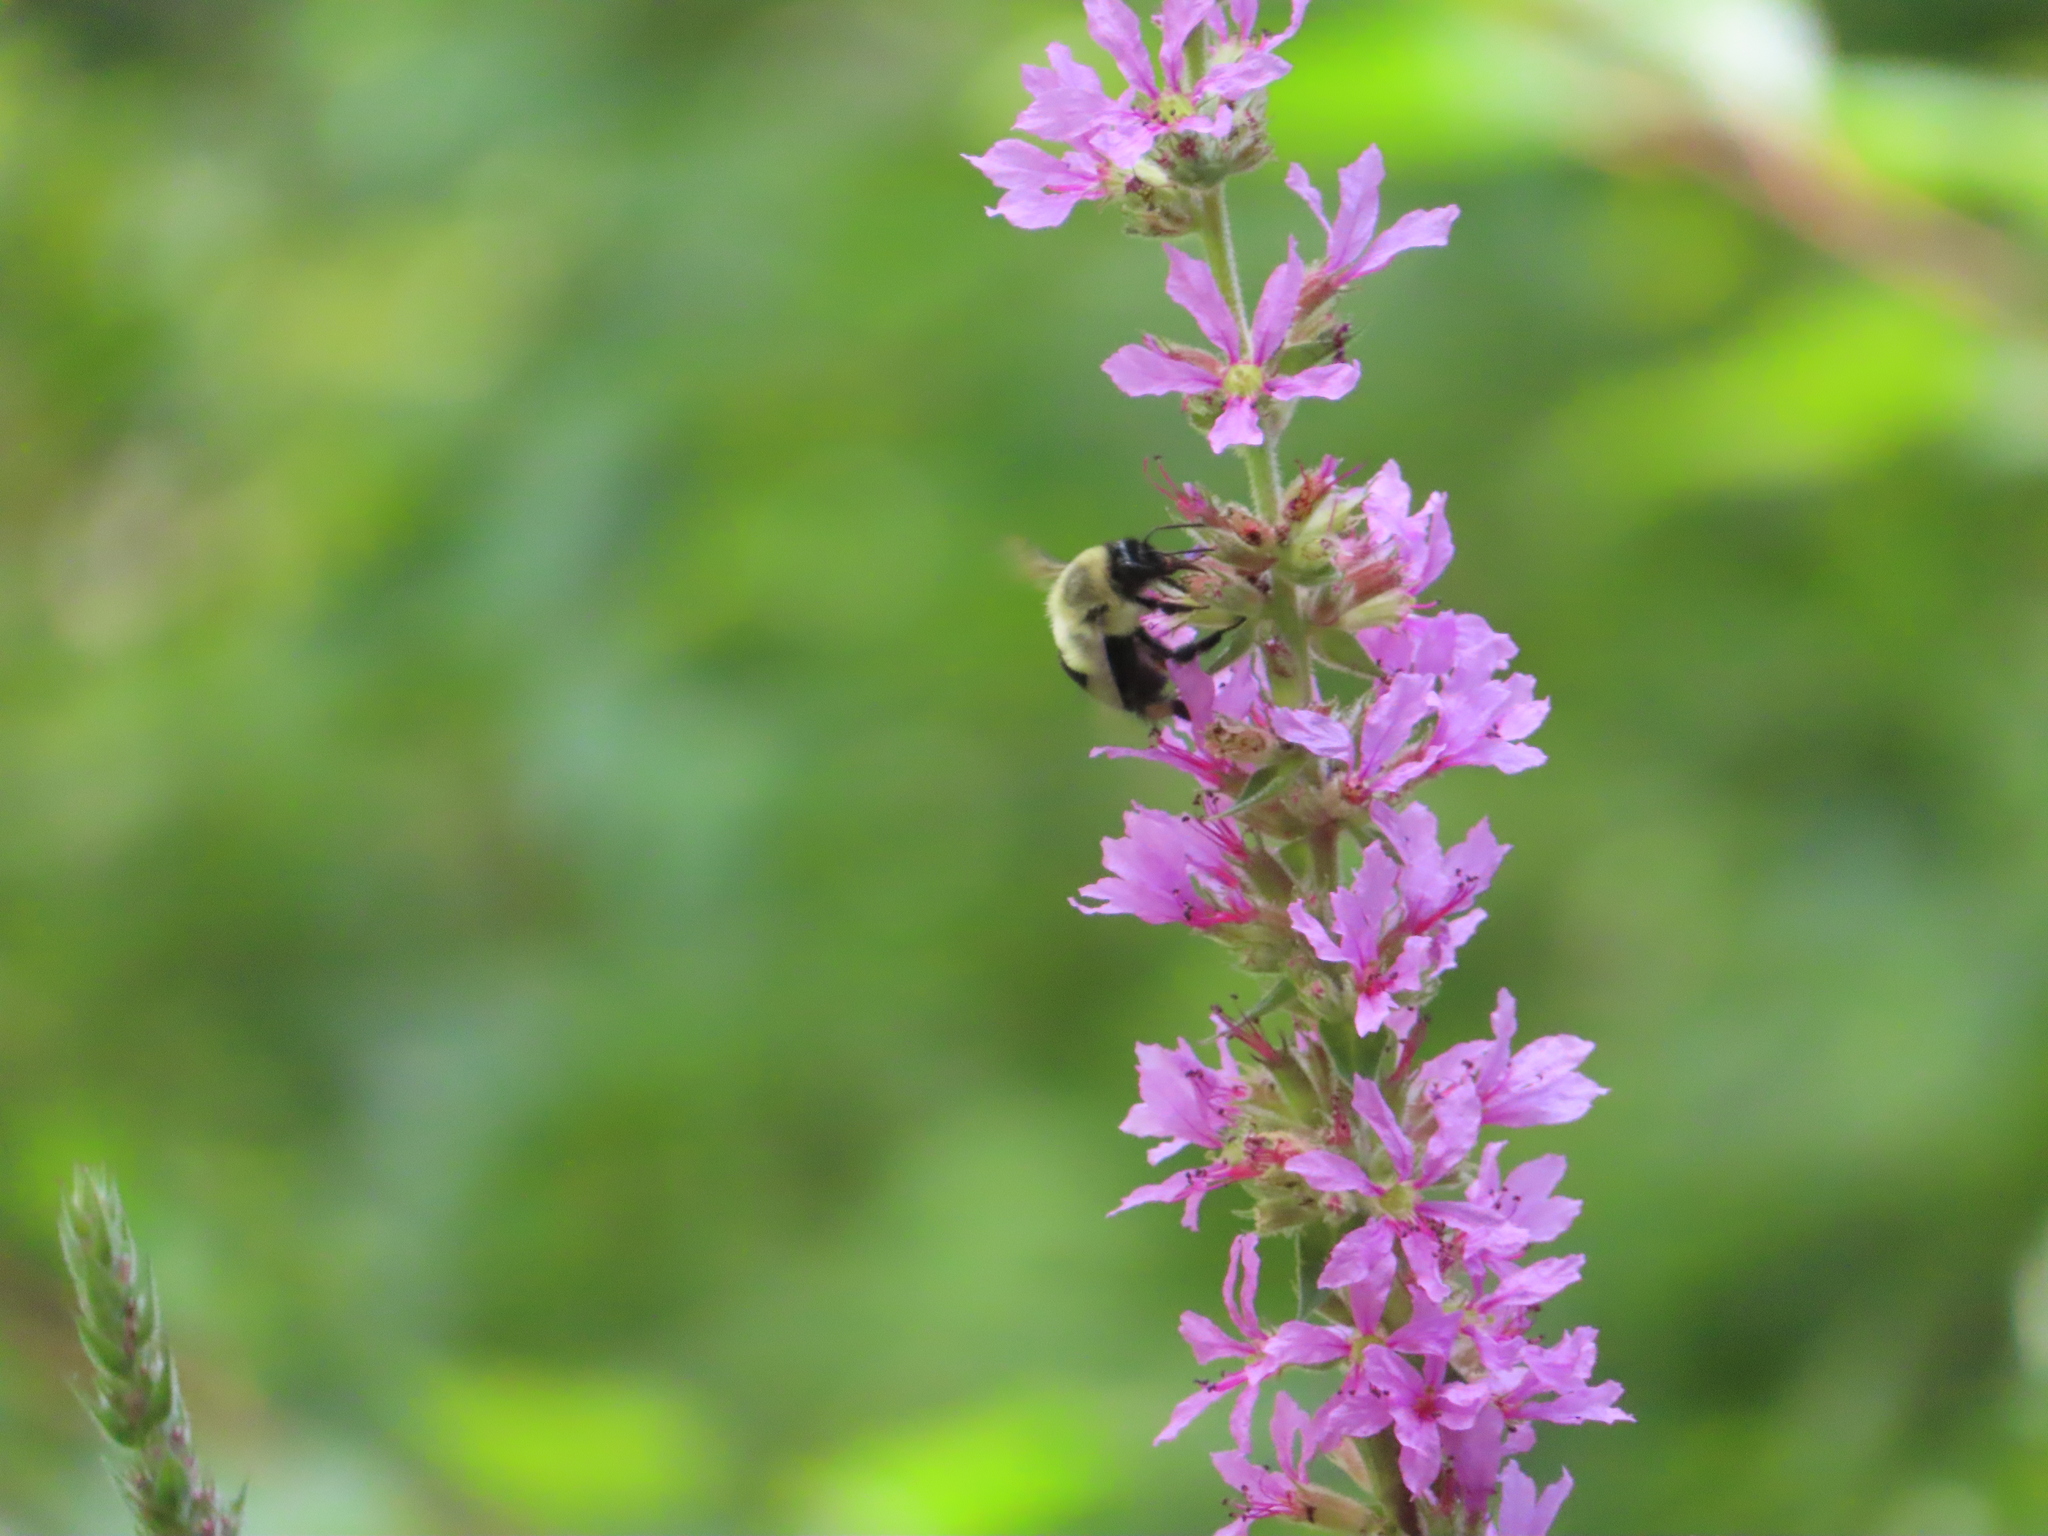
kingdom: Animalia
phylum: Arthropoda
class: Insecta
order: Hymenoptera
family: Apidae
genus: Bombus
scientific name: Bombus impatiens
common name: Common eastern bumble bee
